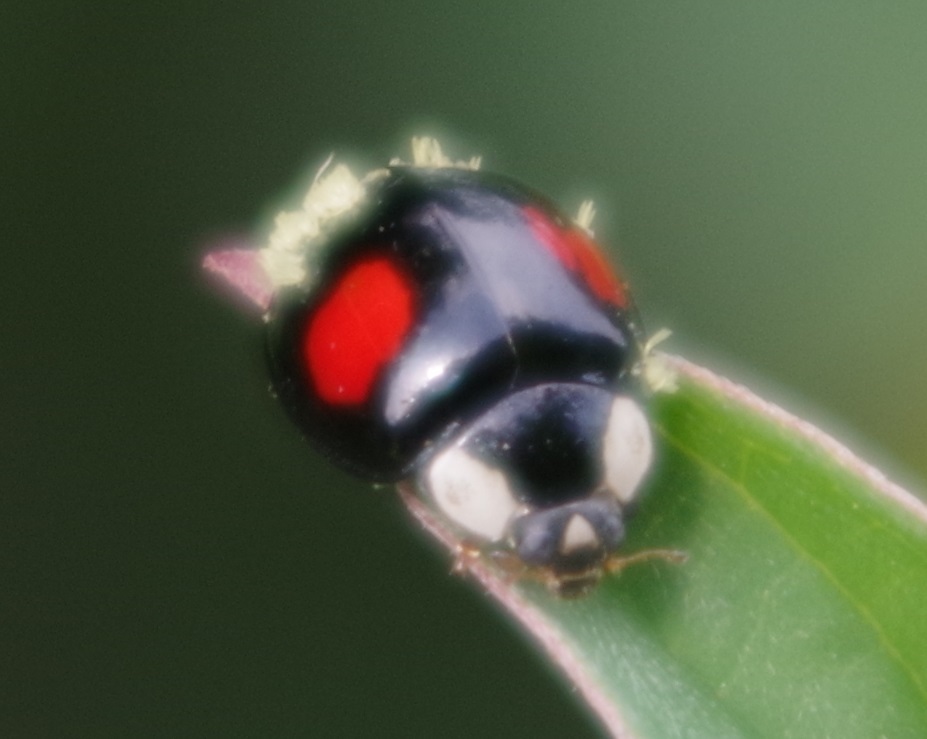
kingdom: Animalia
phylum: Arthropoda
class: Insecta
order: Coleoptera
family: Coccinellidae
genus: Harmonia
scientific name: Harmonia axyridis
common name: Harlequin ladybird
